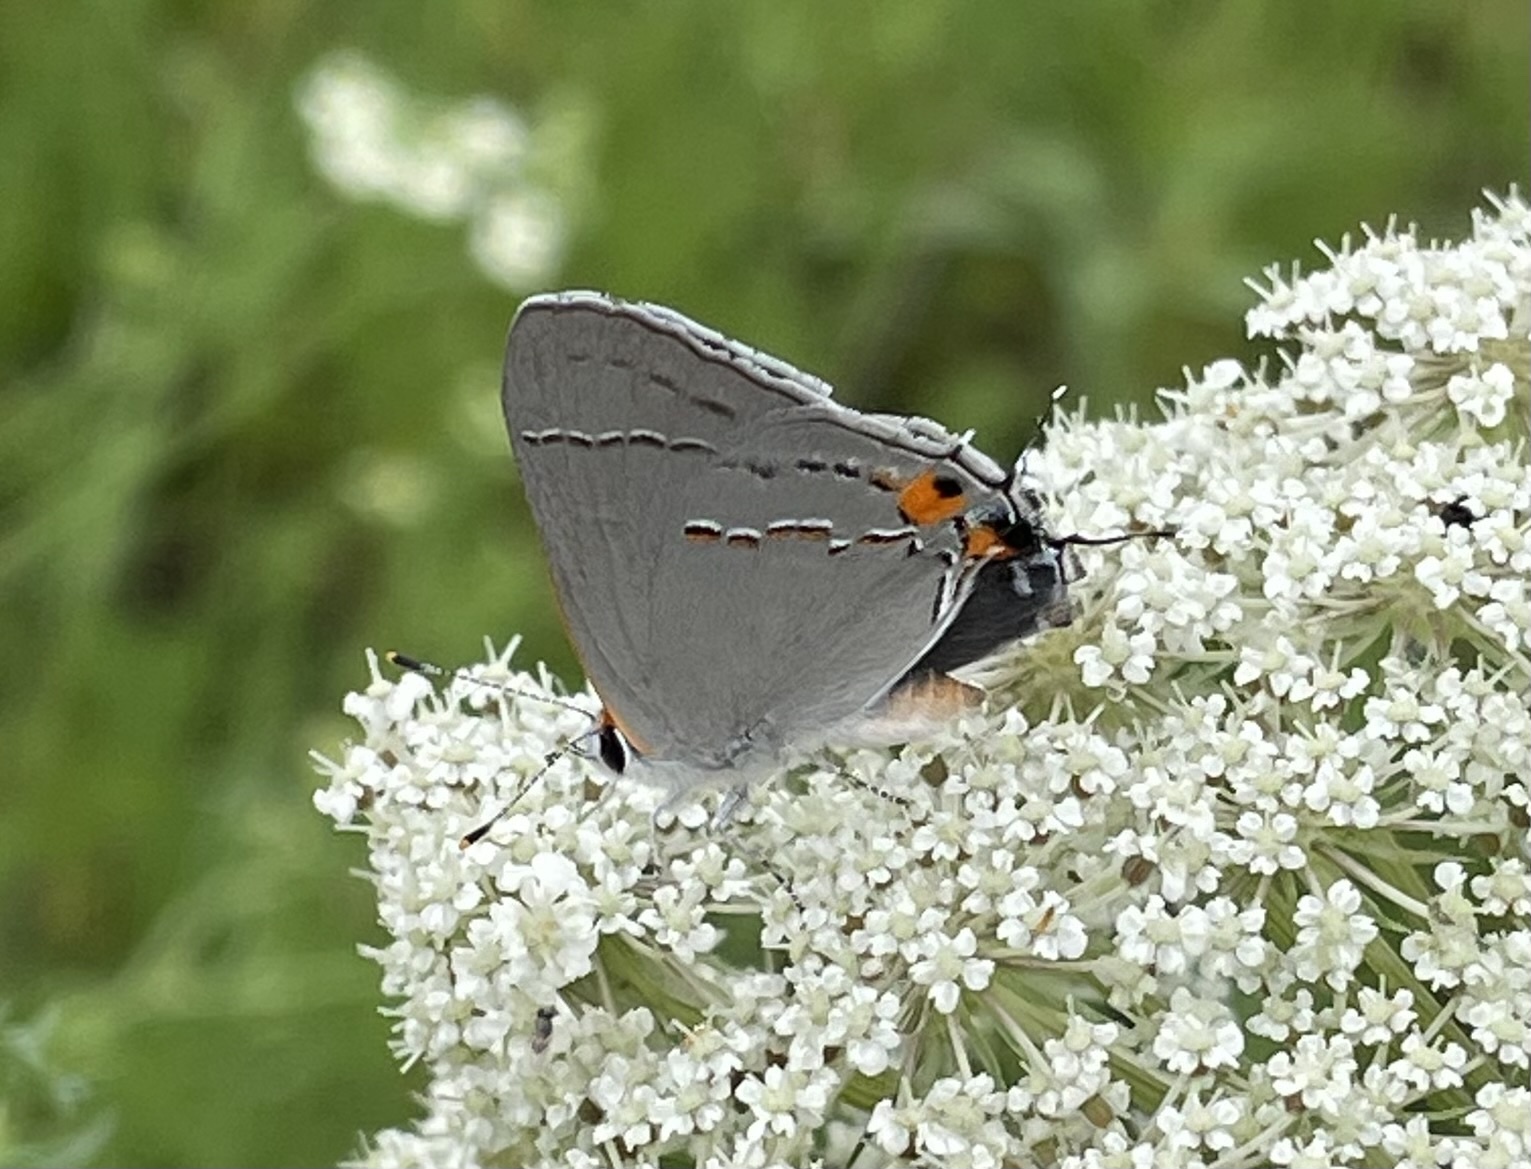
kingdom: Animalia
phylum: Arthropoda
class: Insecta
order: Lepidoptera
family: Lycaenidae
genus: Strymon
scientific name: Strymon melinus
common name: Gray hairstreak
